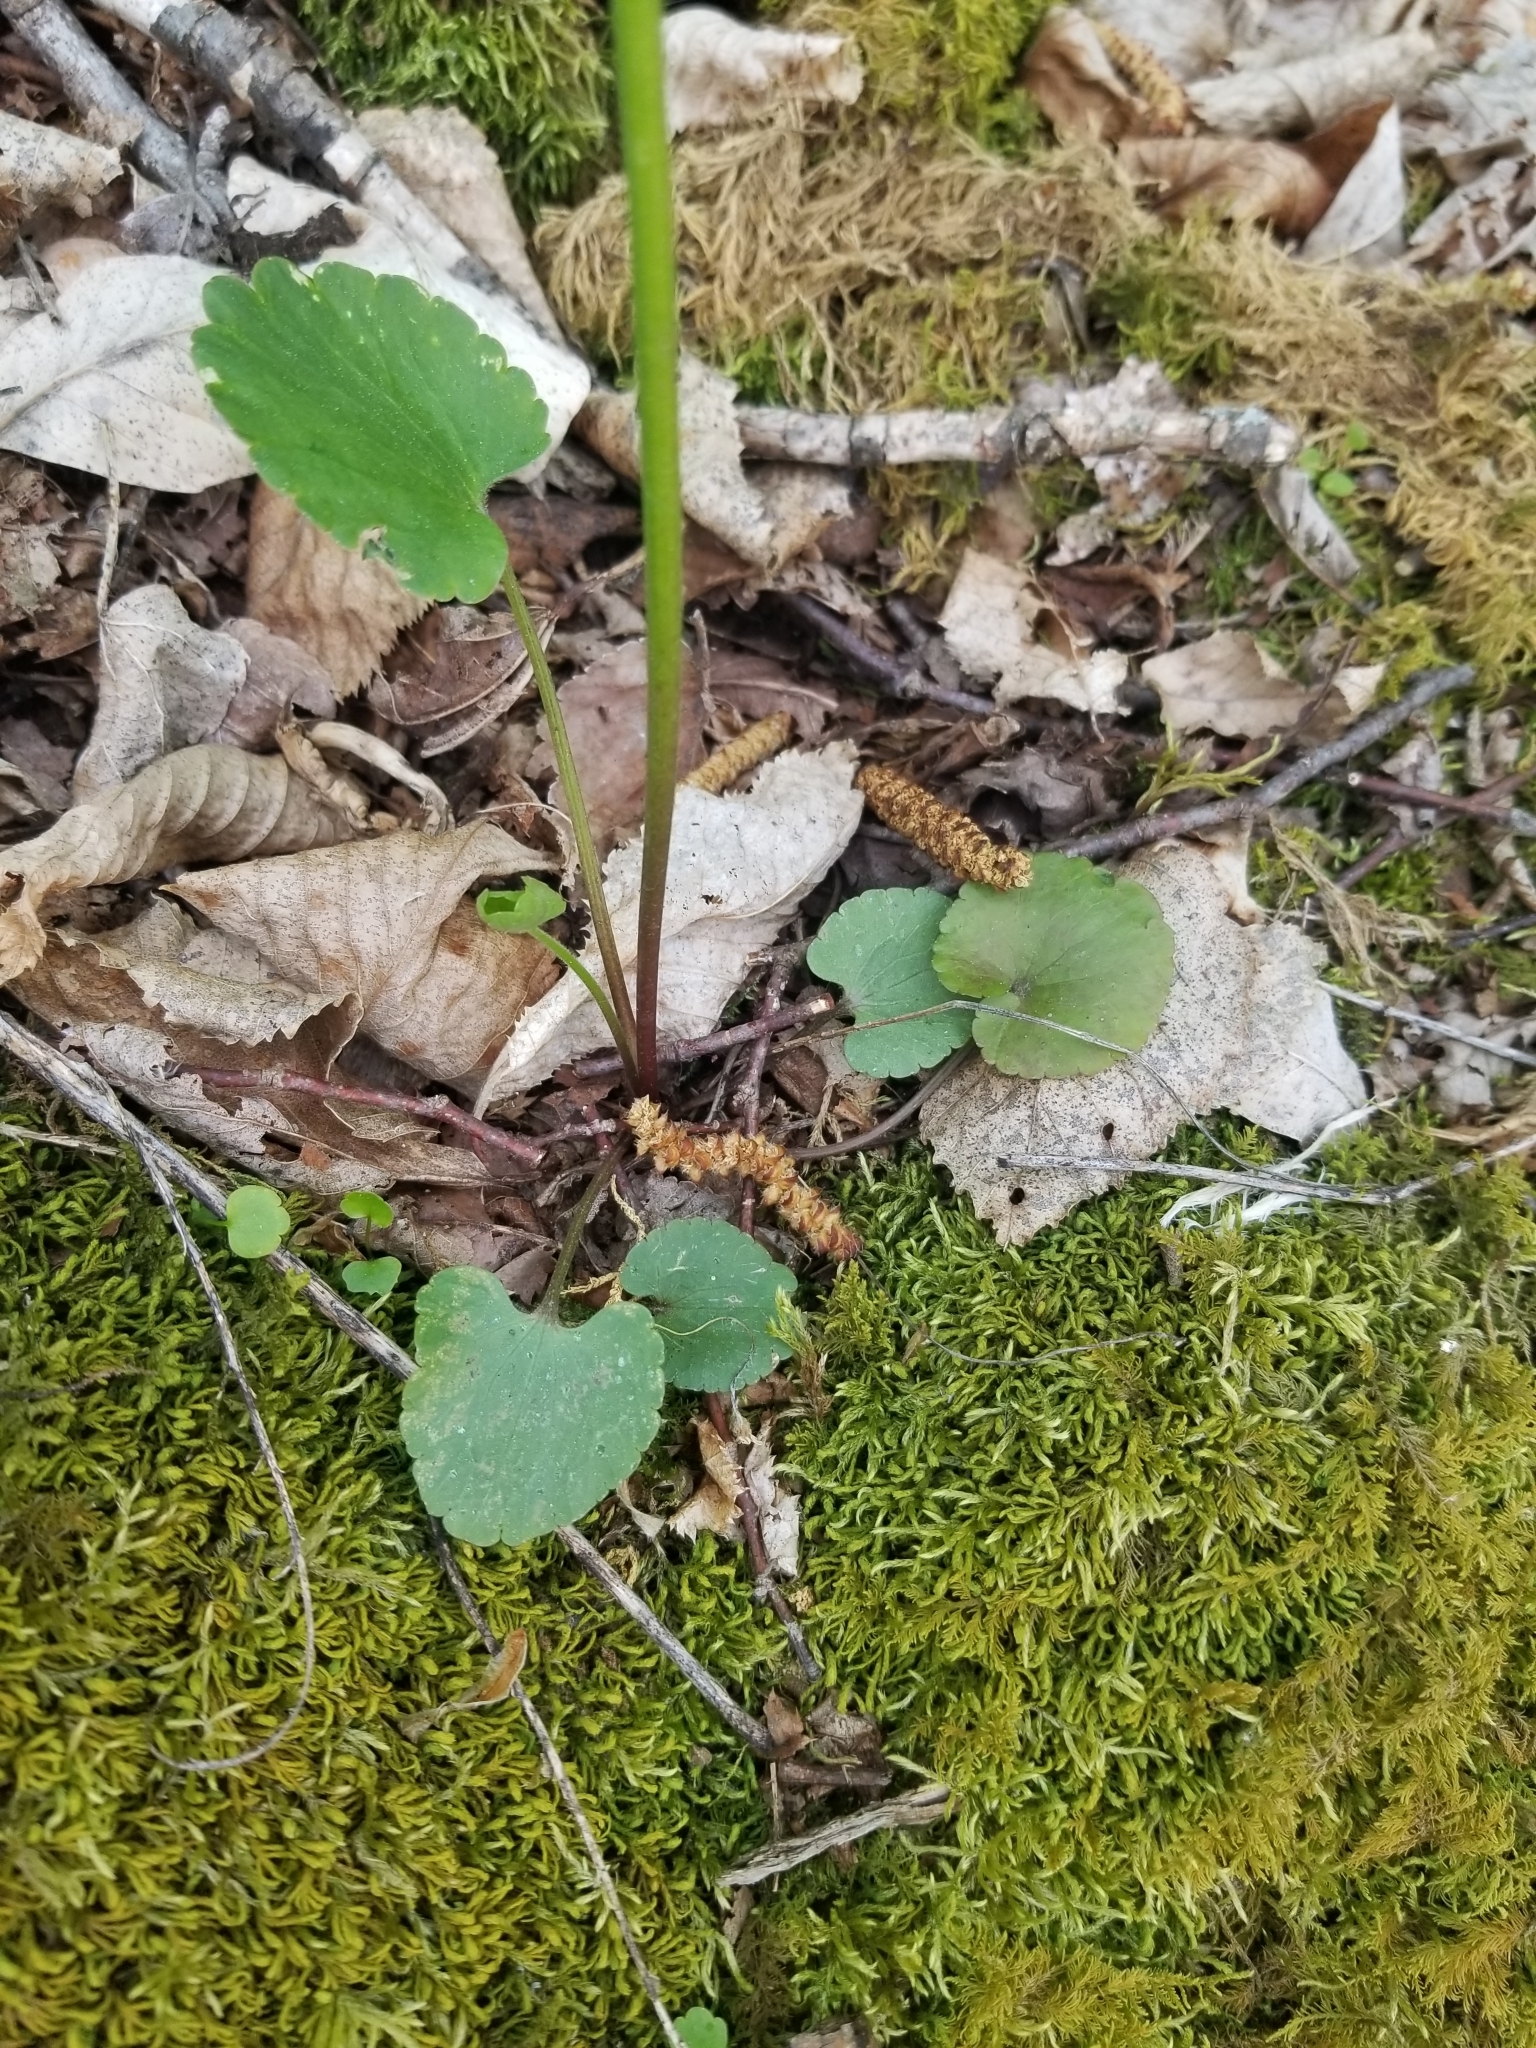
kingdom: Plantae
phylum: Tracheophyta
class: Magnoliopsida
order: Ranunculales
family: Ranunculaceae
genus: Ranunculus
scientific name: Ranunculus abortivus
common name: Early wood buttercup
